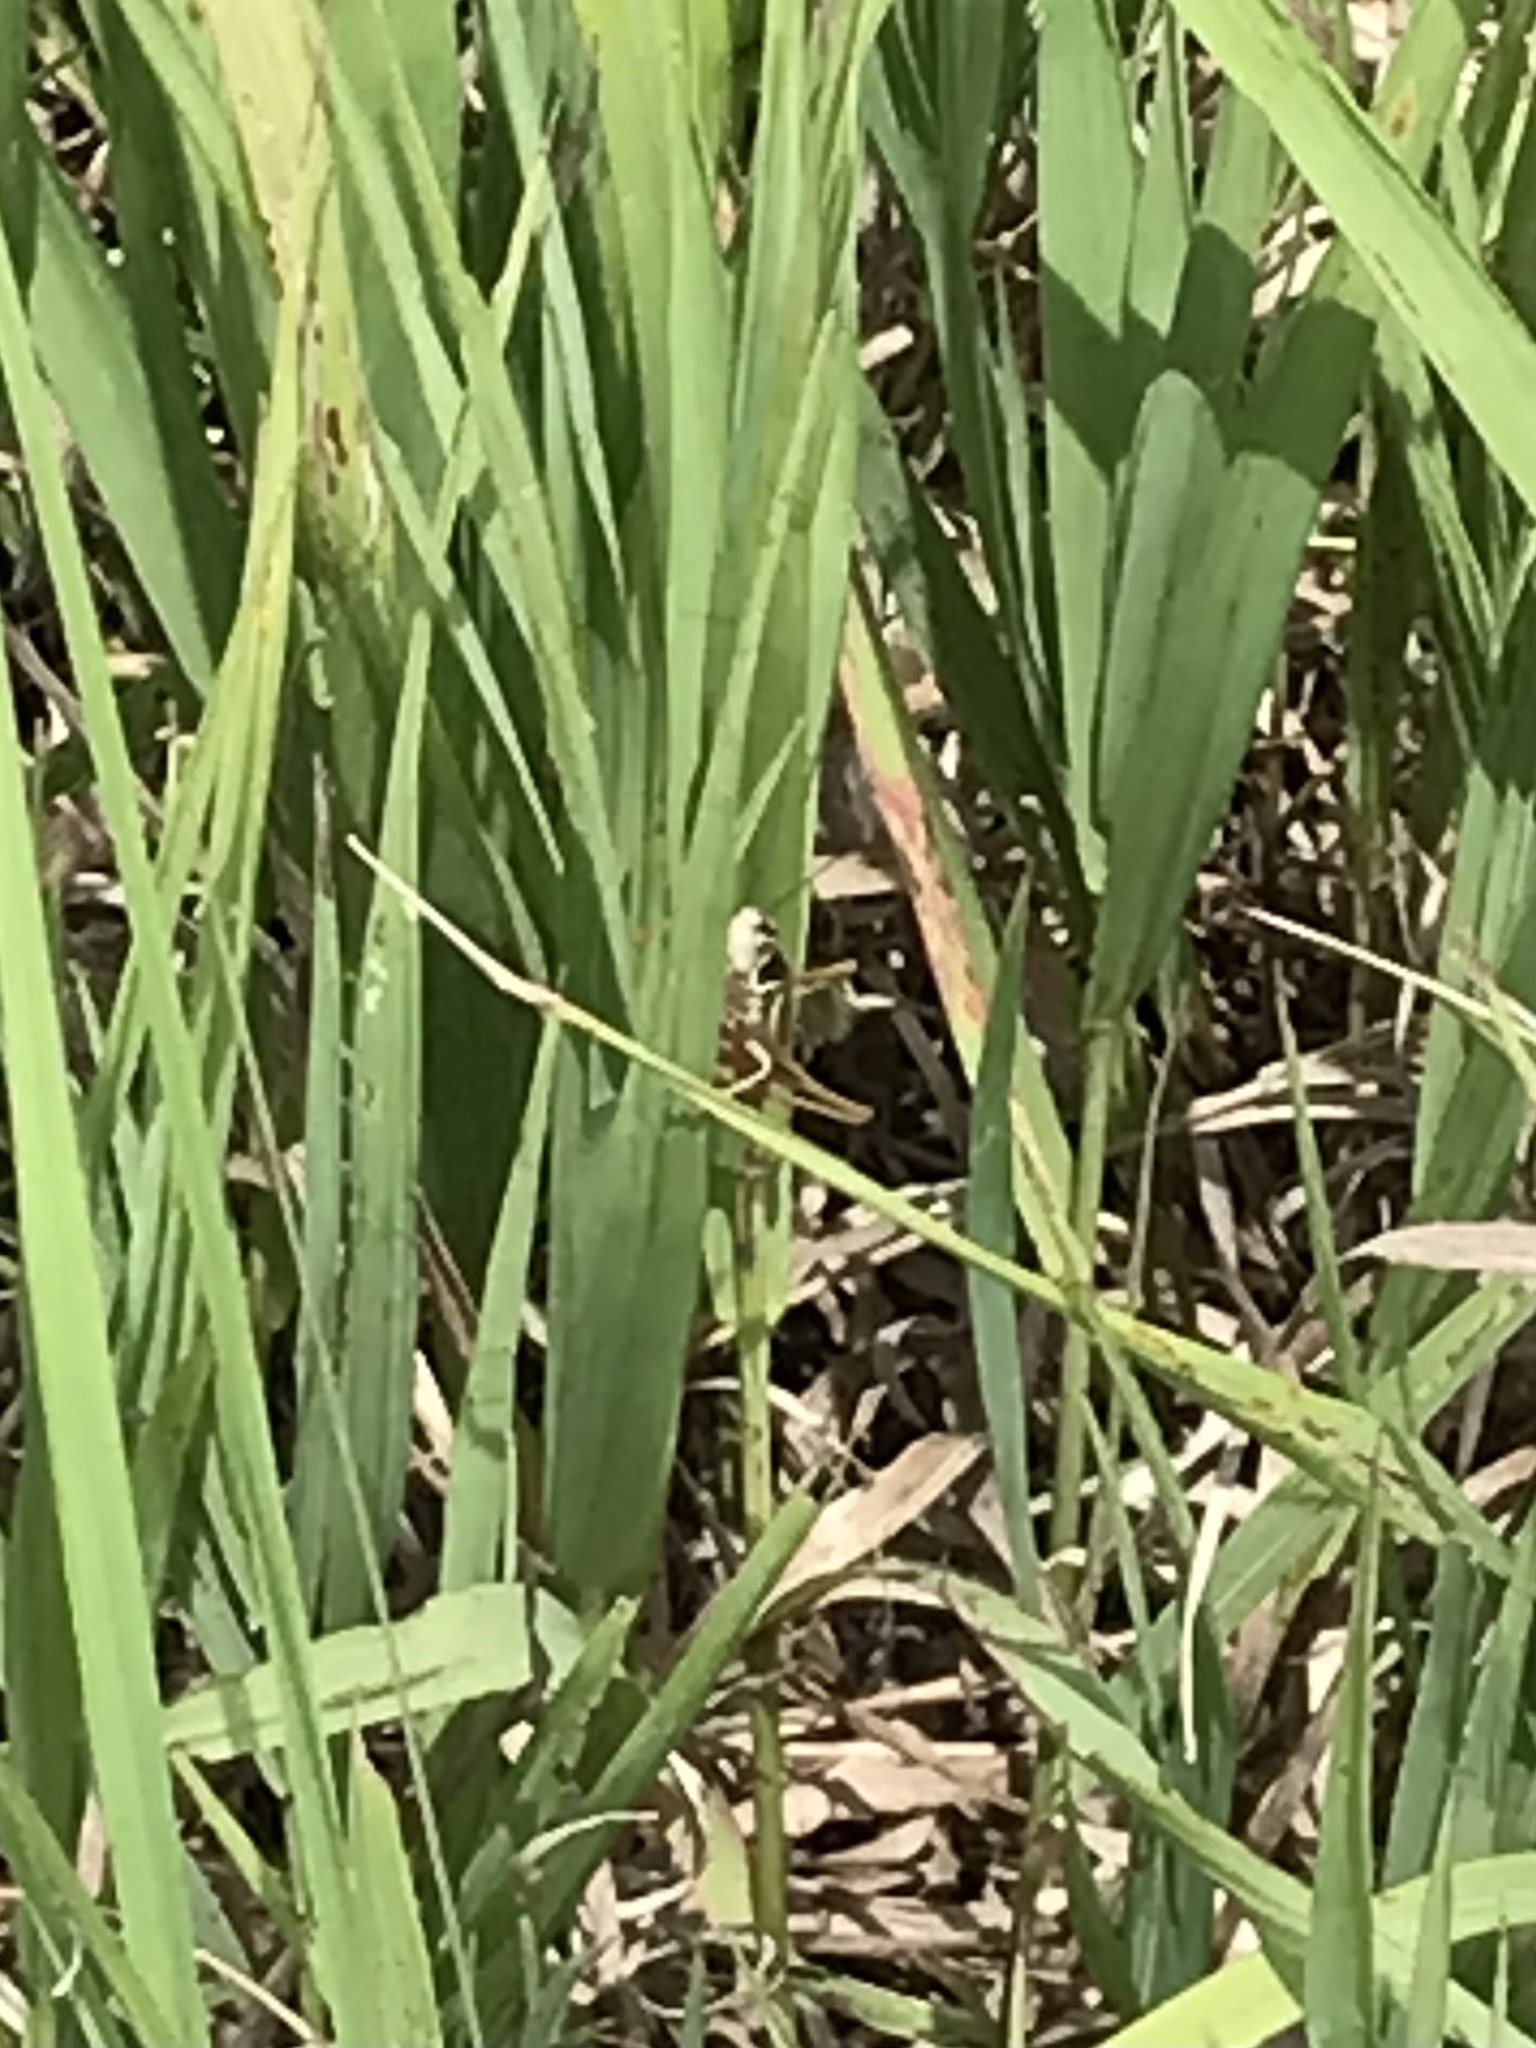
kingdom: Animalia
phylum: Arthropoda
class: Insecta
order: Orthoptera
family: Tettigoniidae
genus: Roeseliana
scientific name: Roeseliana roeselii
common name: Roesel's bush cricket
